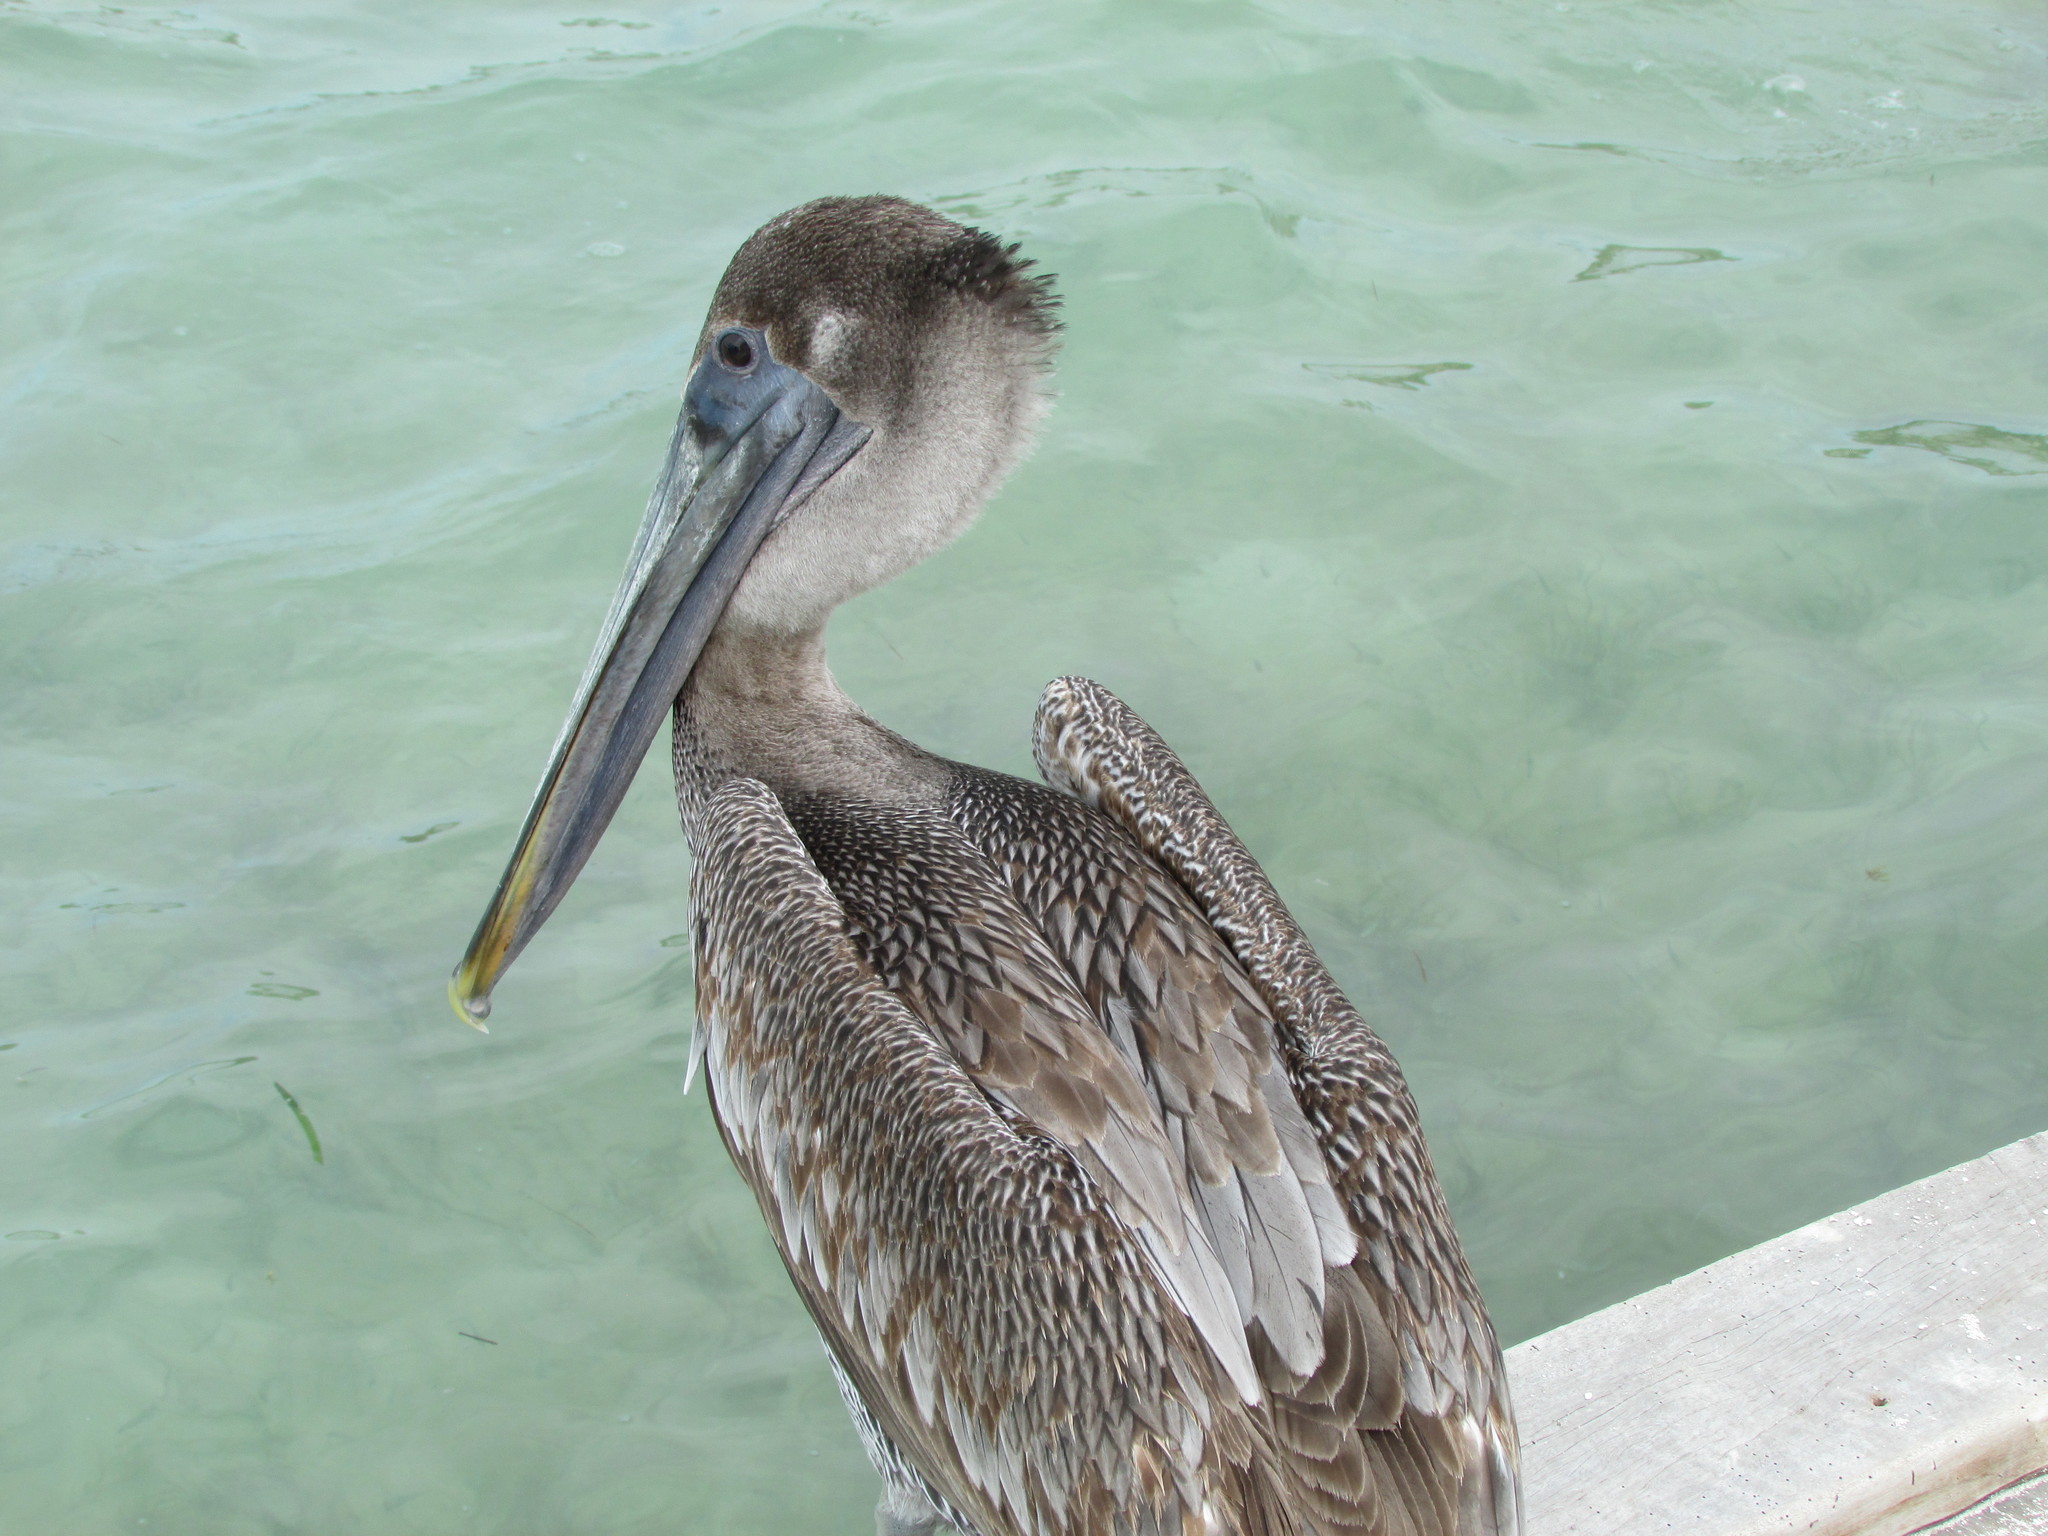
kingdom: Animalia
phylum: Chordata
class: Aves
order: Pelecaniformes
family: Pelecanidae
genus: Pelecanus
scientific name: Pelecanus occidentalis
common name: Brown pelican
